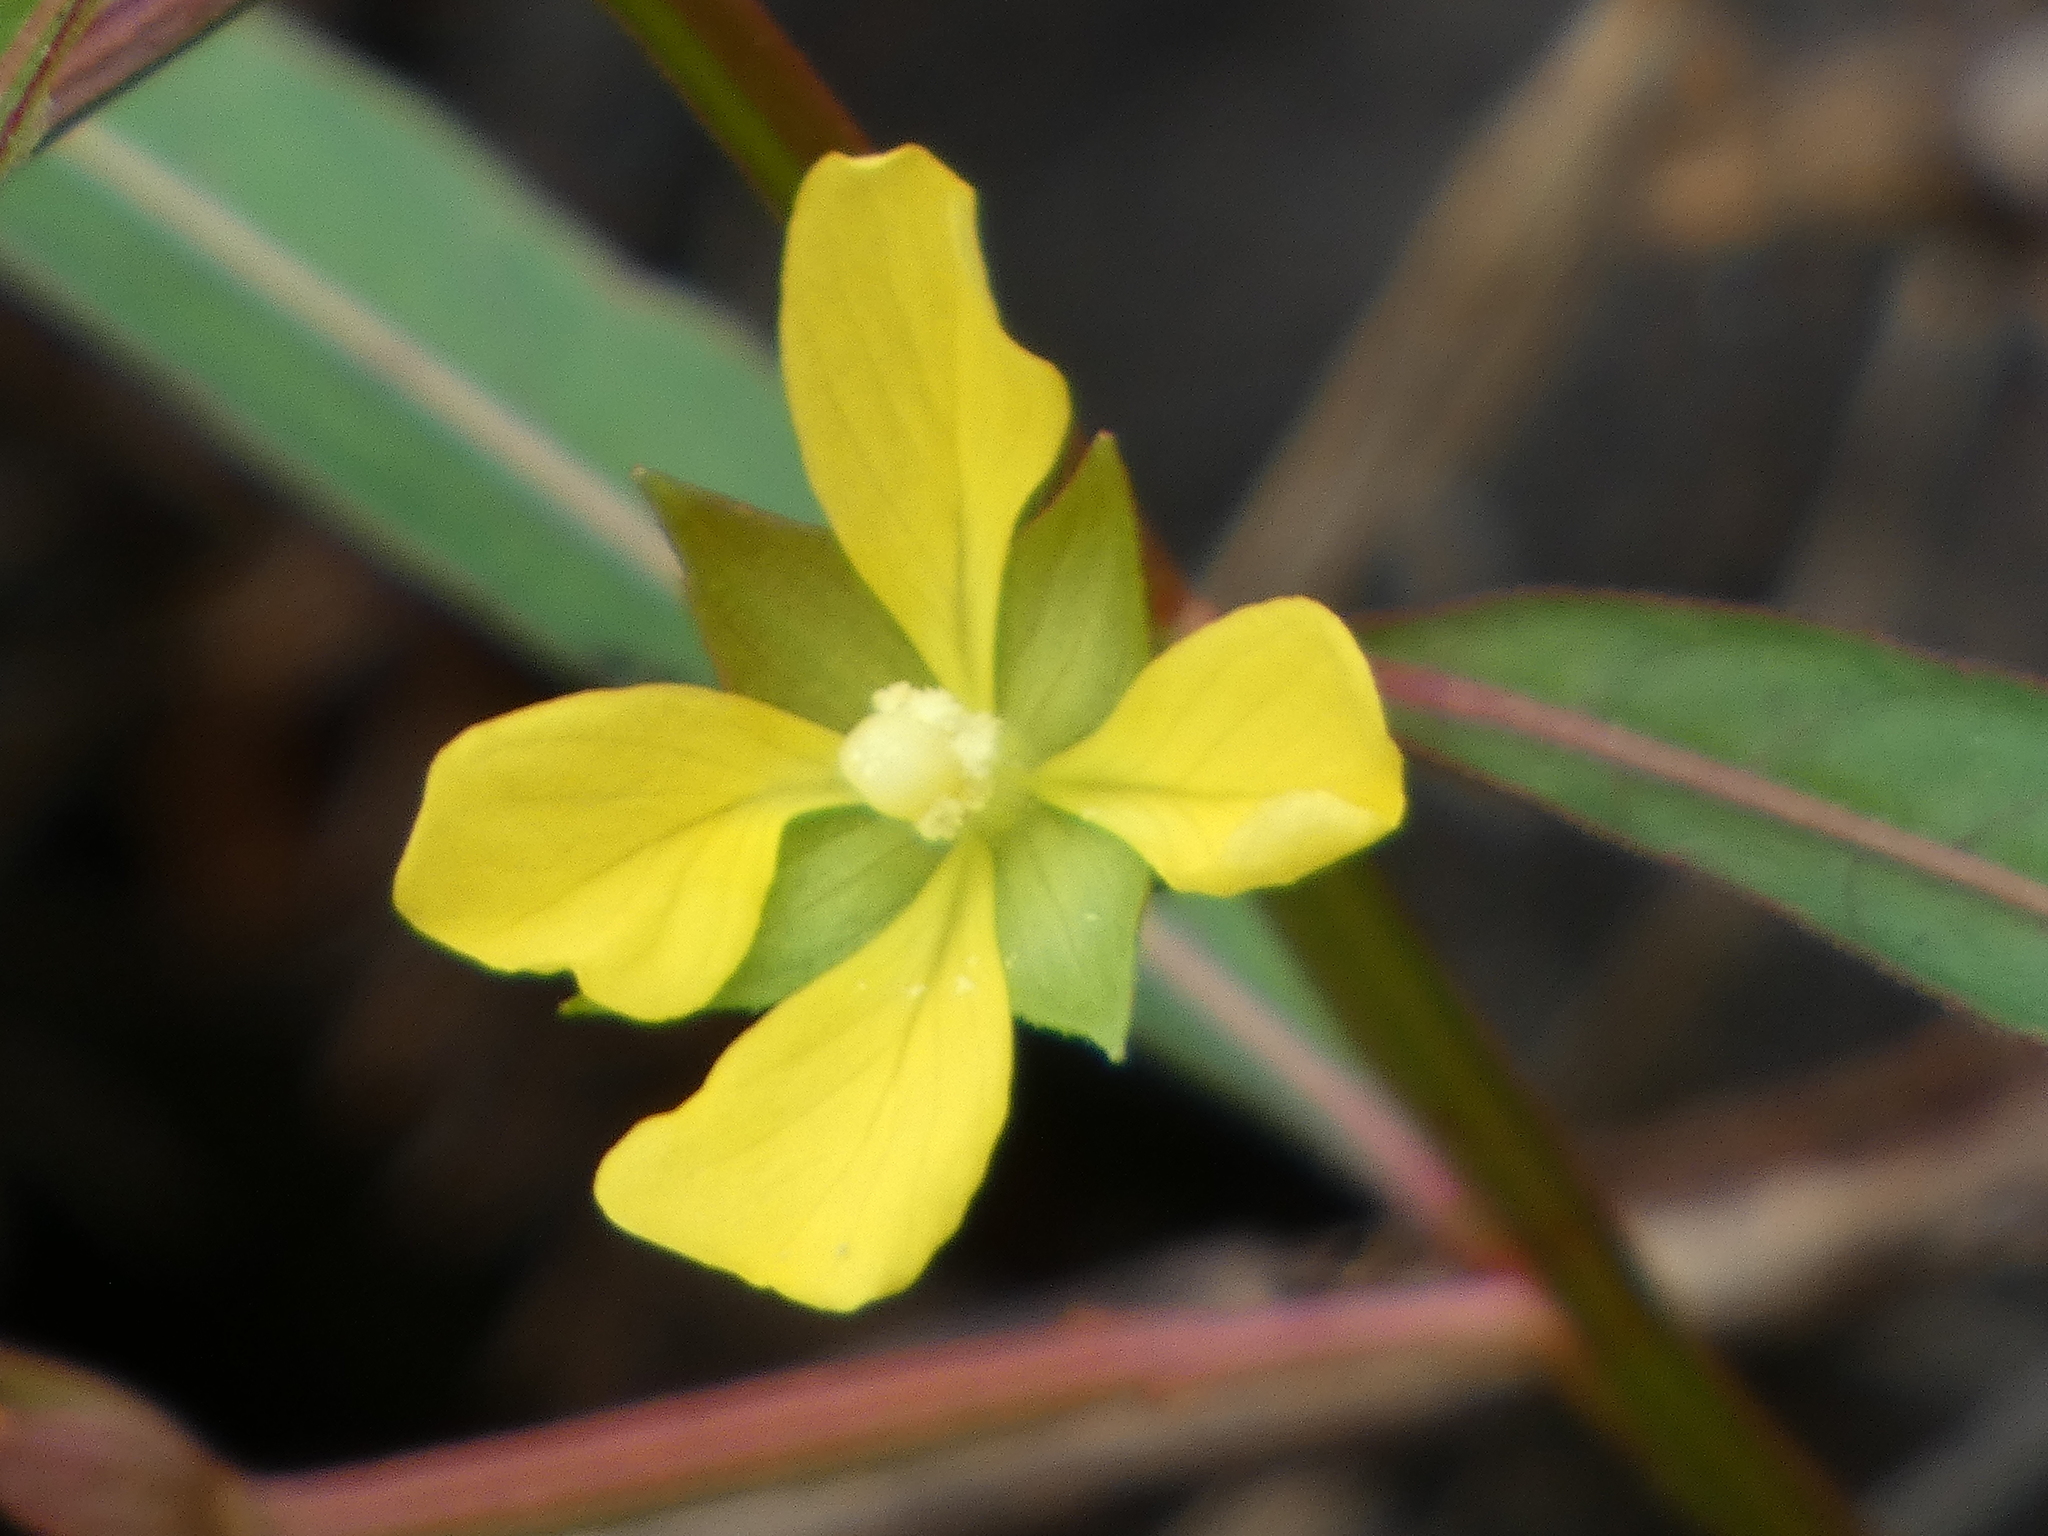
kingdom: Plantae
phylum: Tracheophyta
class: Magnoliopsida
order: Myrtales
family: Onagraceae
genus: Ludwigia
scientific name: Ludwigia octovalvis
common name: Water-primrose
